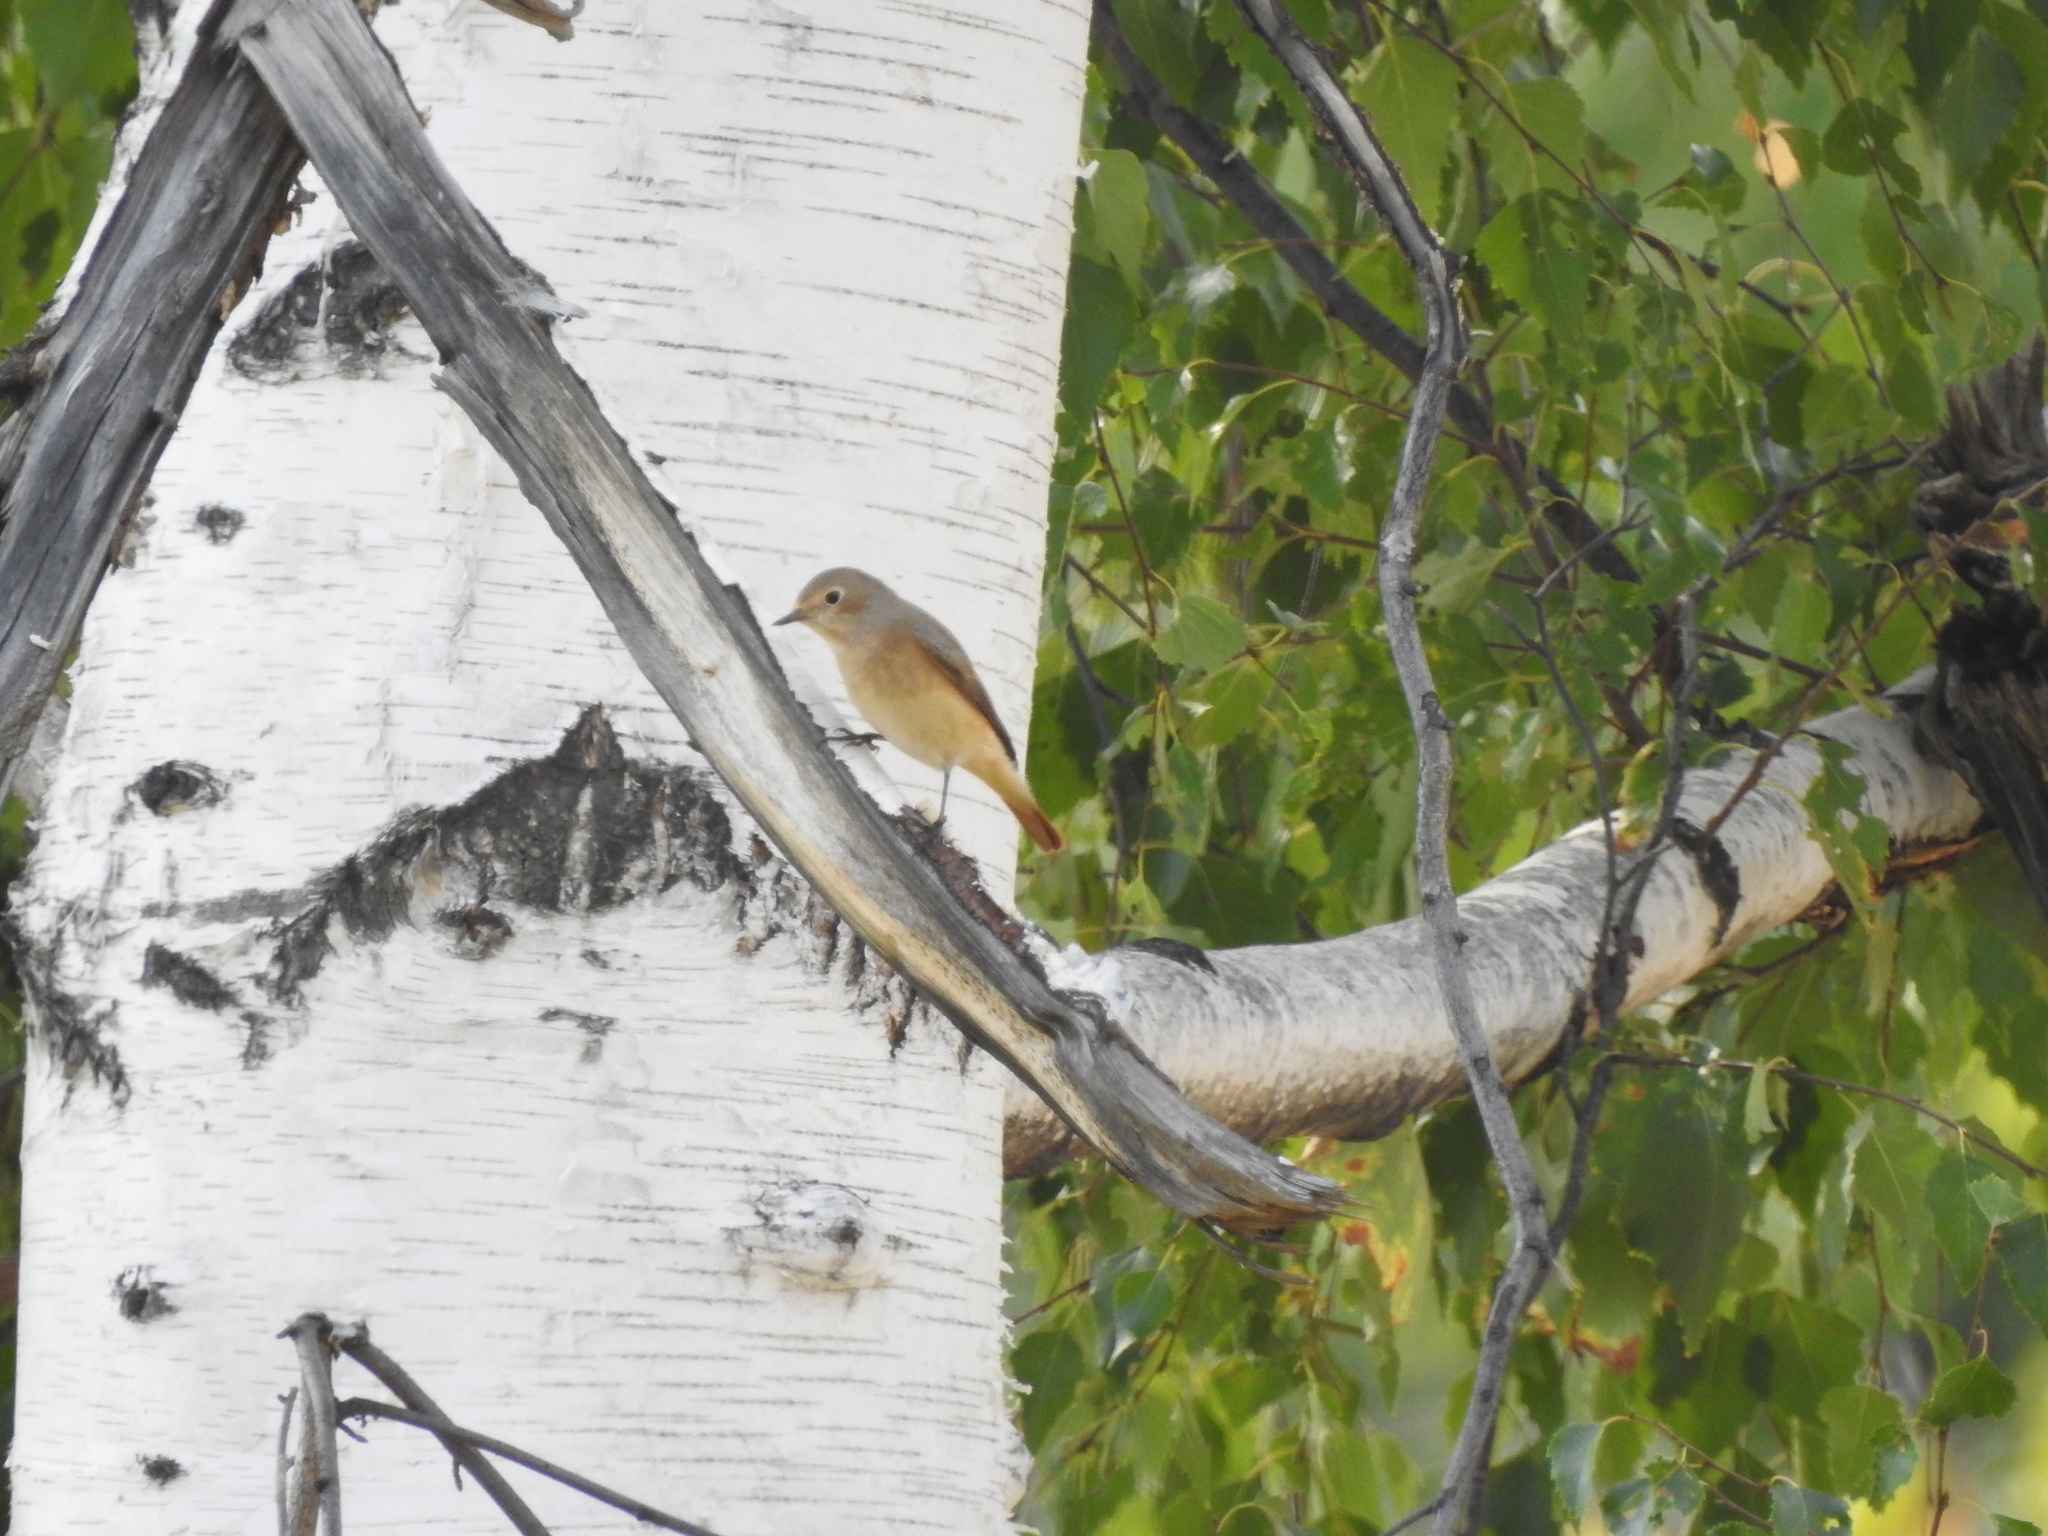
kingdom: Animalia
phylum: Chordata
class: Aves
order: Passeriformes
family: Muscicapidae
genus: Phoenicurus
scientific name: Phoenicurus phoenicurus
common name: Common redstart
